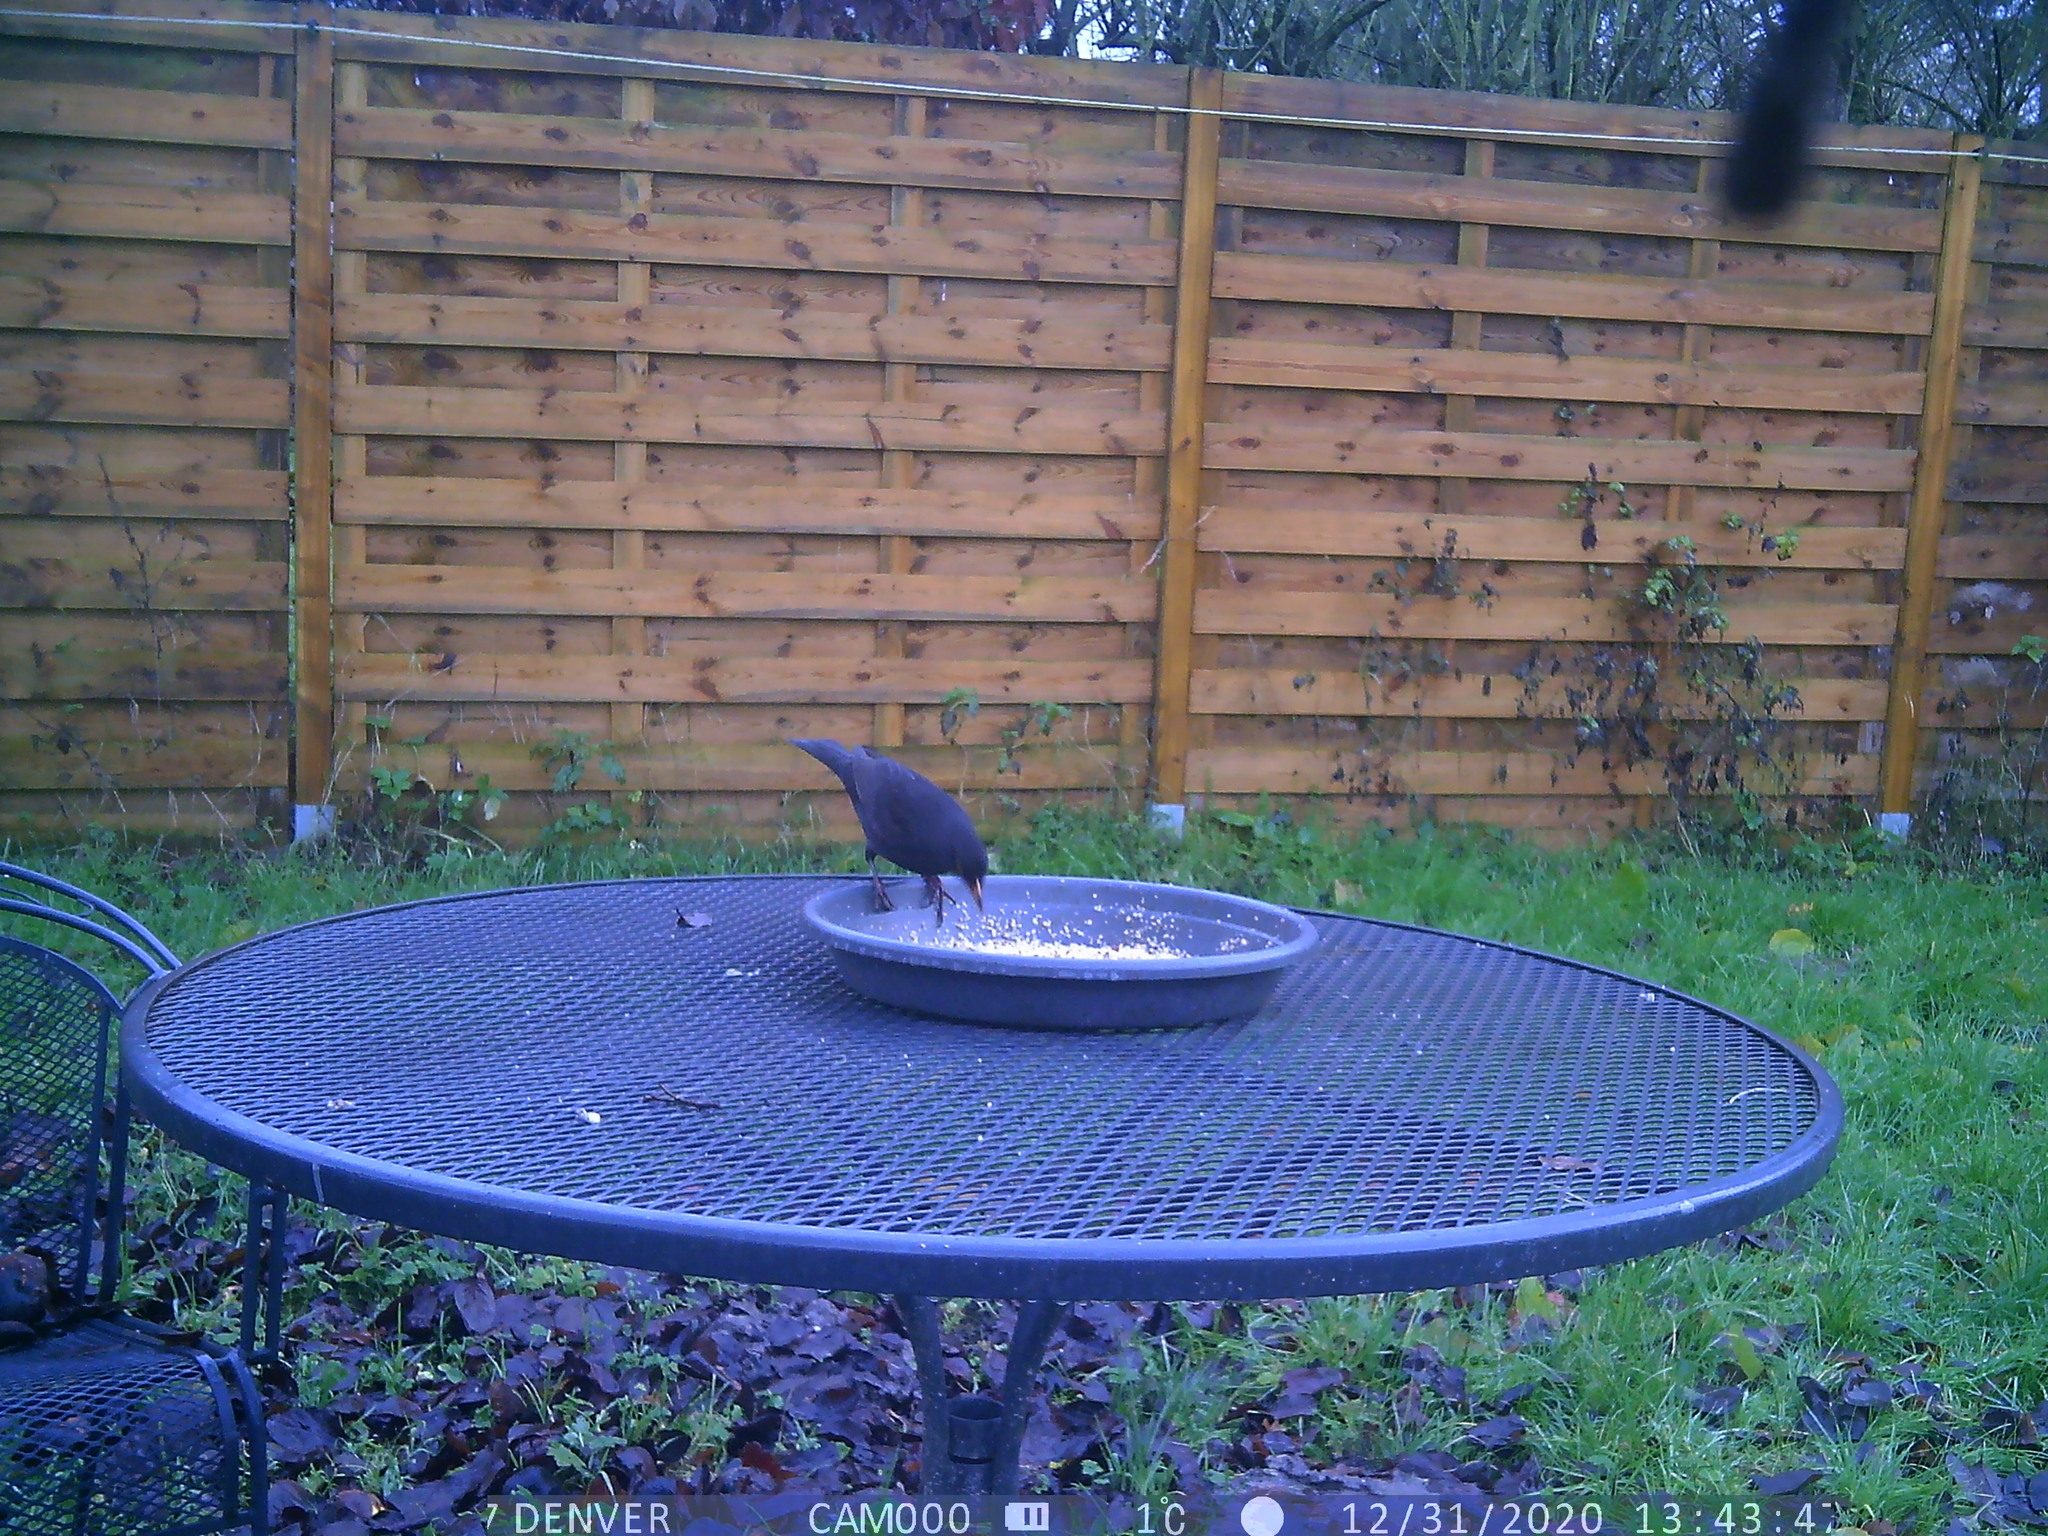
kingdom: Animalia
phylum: Chordata
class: Aves
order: Passeriformes
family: Turdidae
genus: Turdus
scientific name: Turdus merula
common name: Common blackbird
